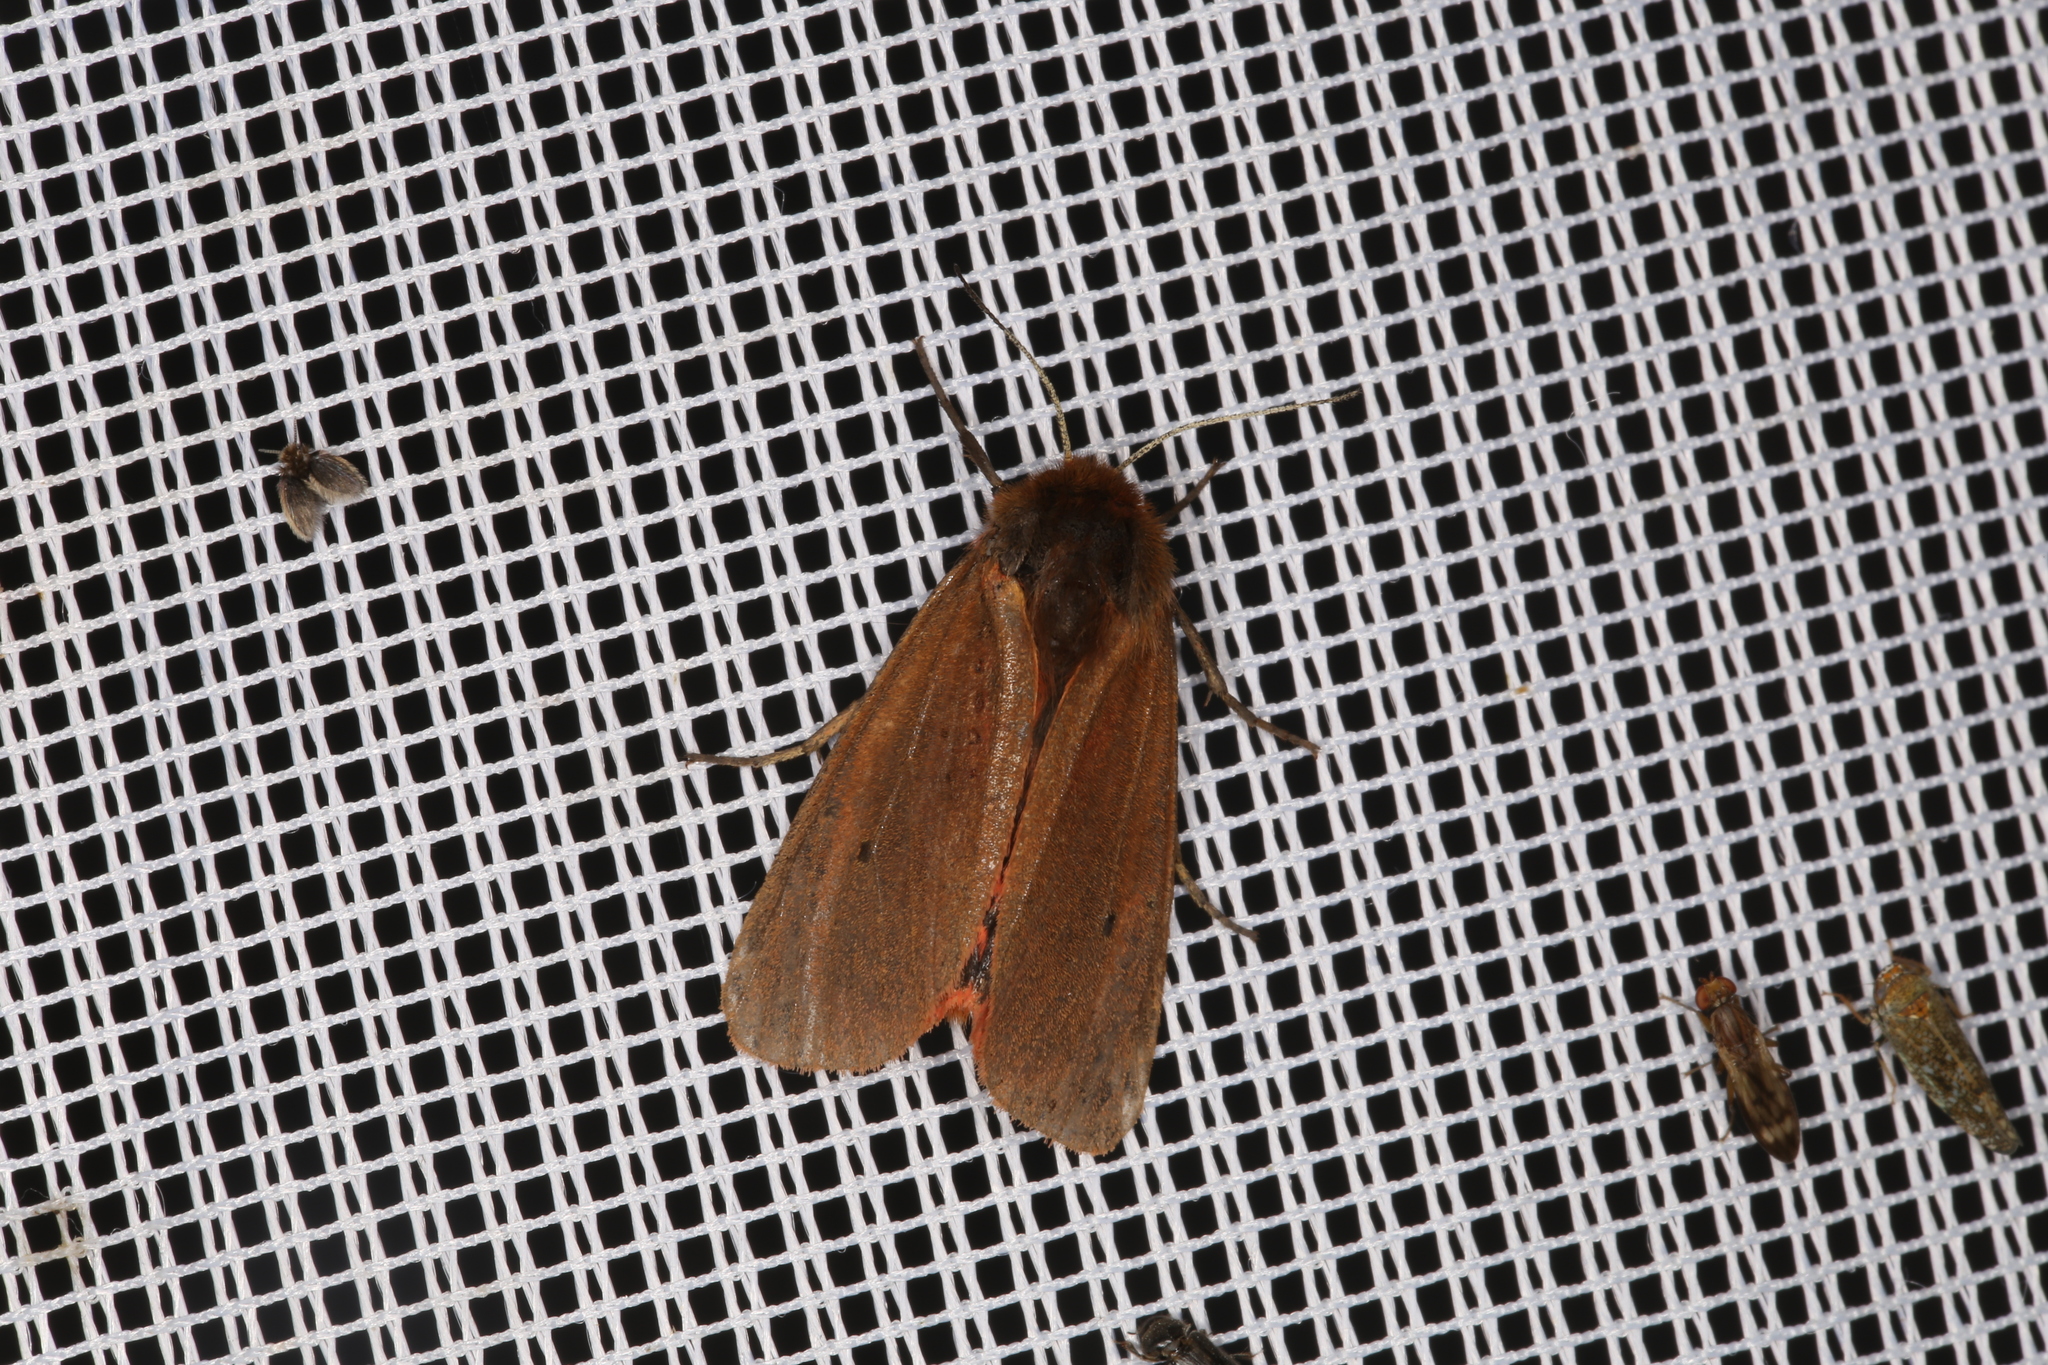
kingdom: Animalia
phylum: Arthropoda
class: Insecta
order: Lepidoptera
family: Erebidae
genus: Phragmatobia
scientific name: Phragmatobia fuliginosa
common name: Ruby tiger
